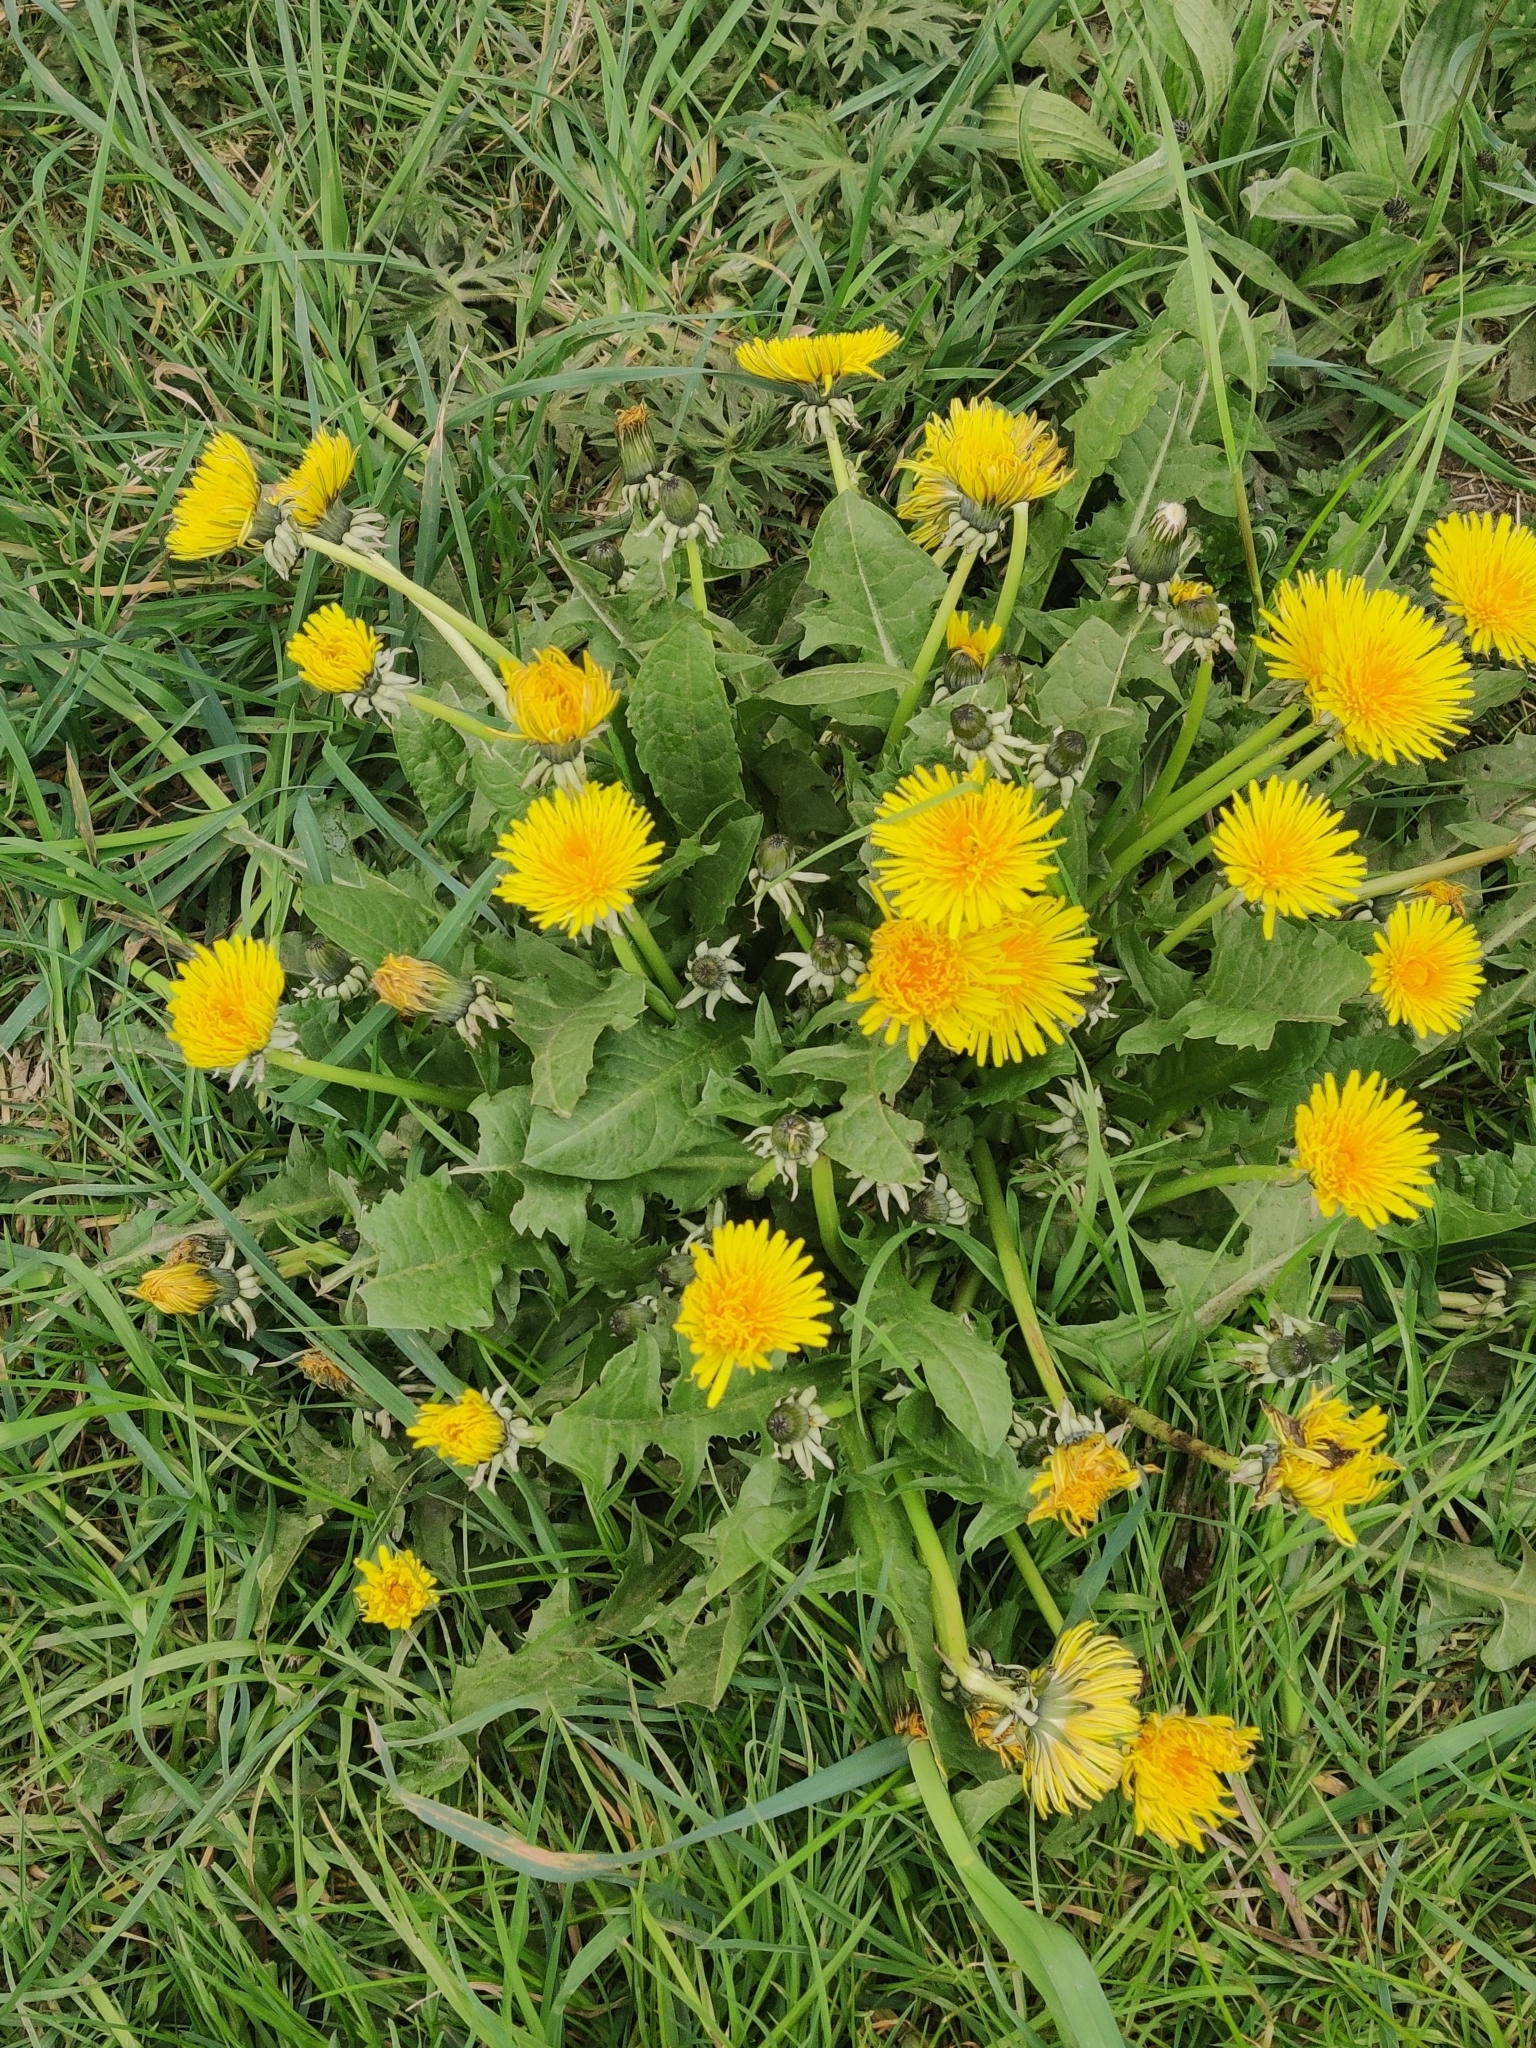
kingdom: Plantae
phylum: Tracheophyta
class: Magnoliopsida
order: Asterales
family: Asteraceae
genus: Taraxacum
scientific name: Taraxacum officinale
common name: Common dandelion
